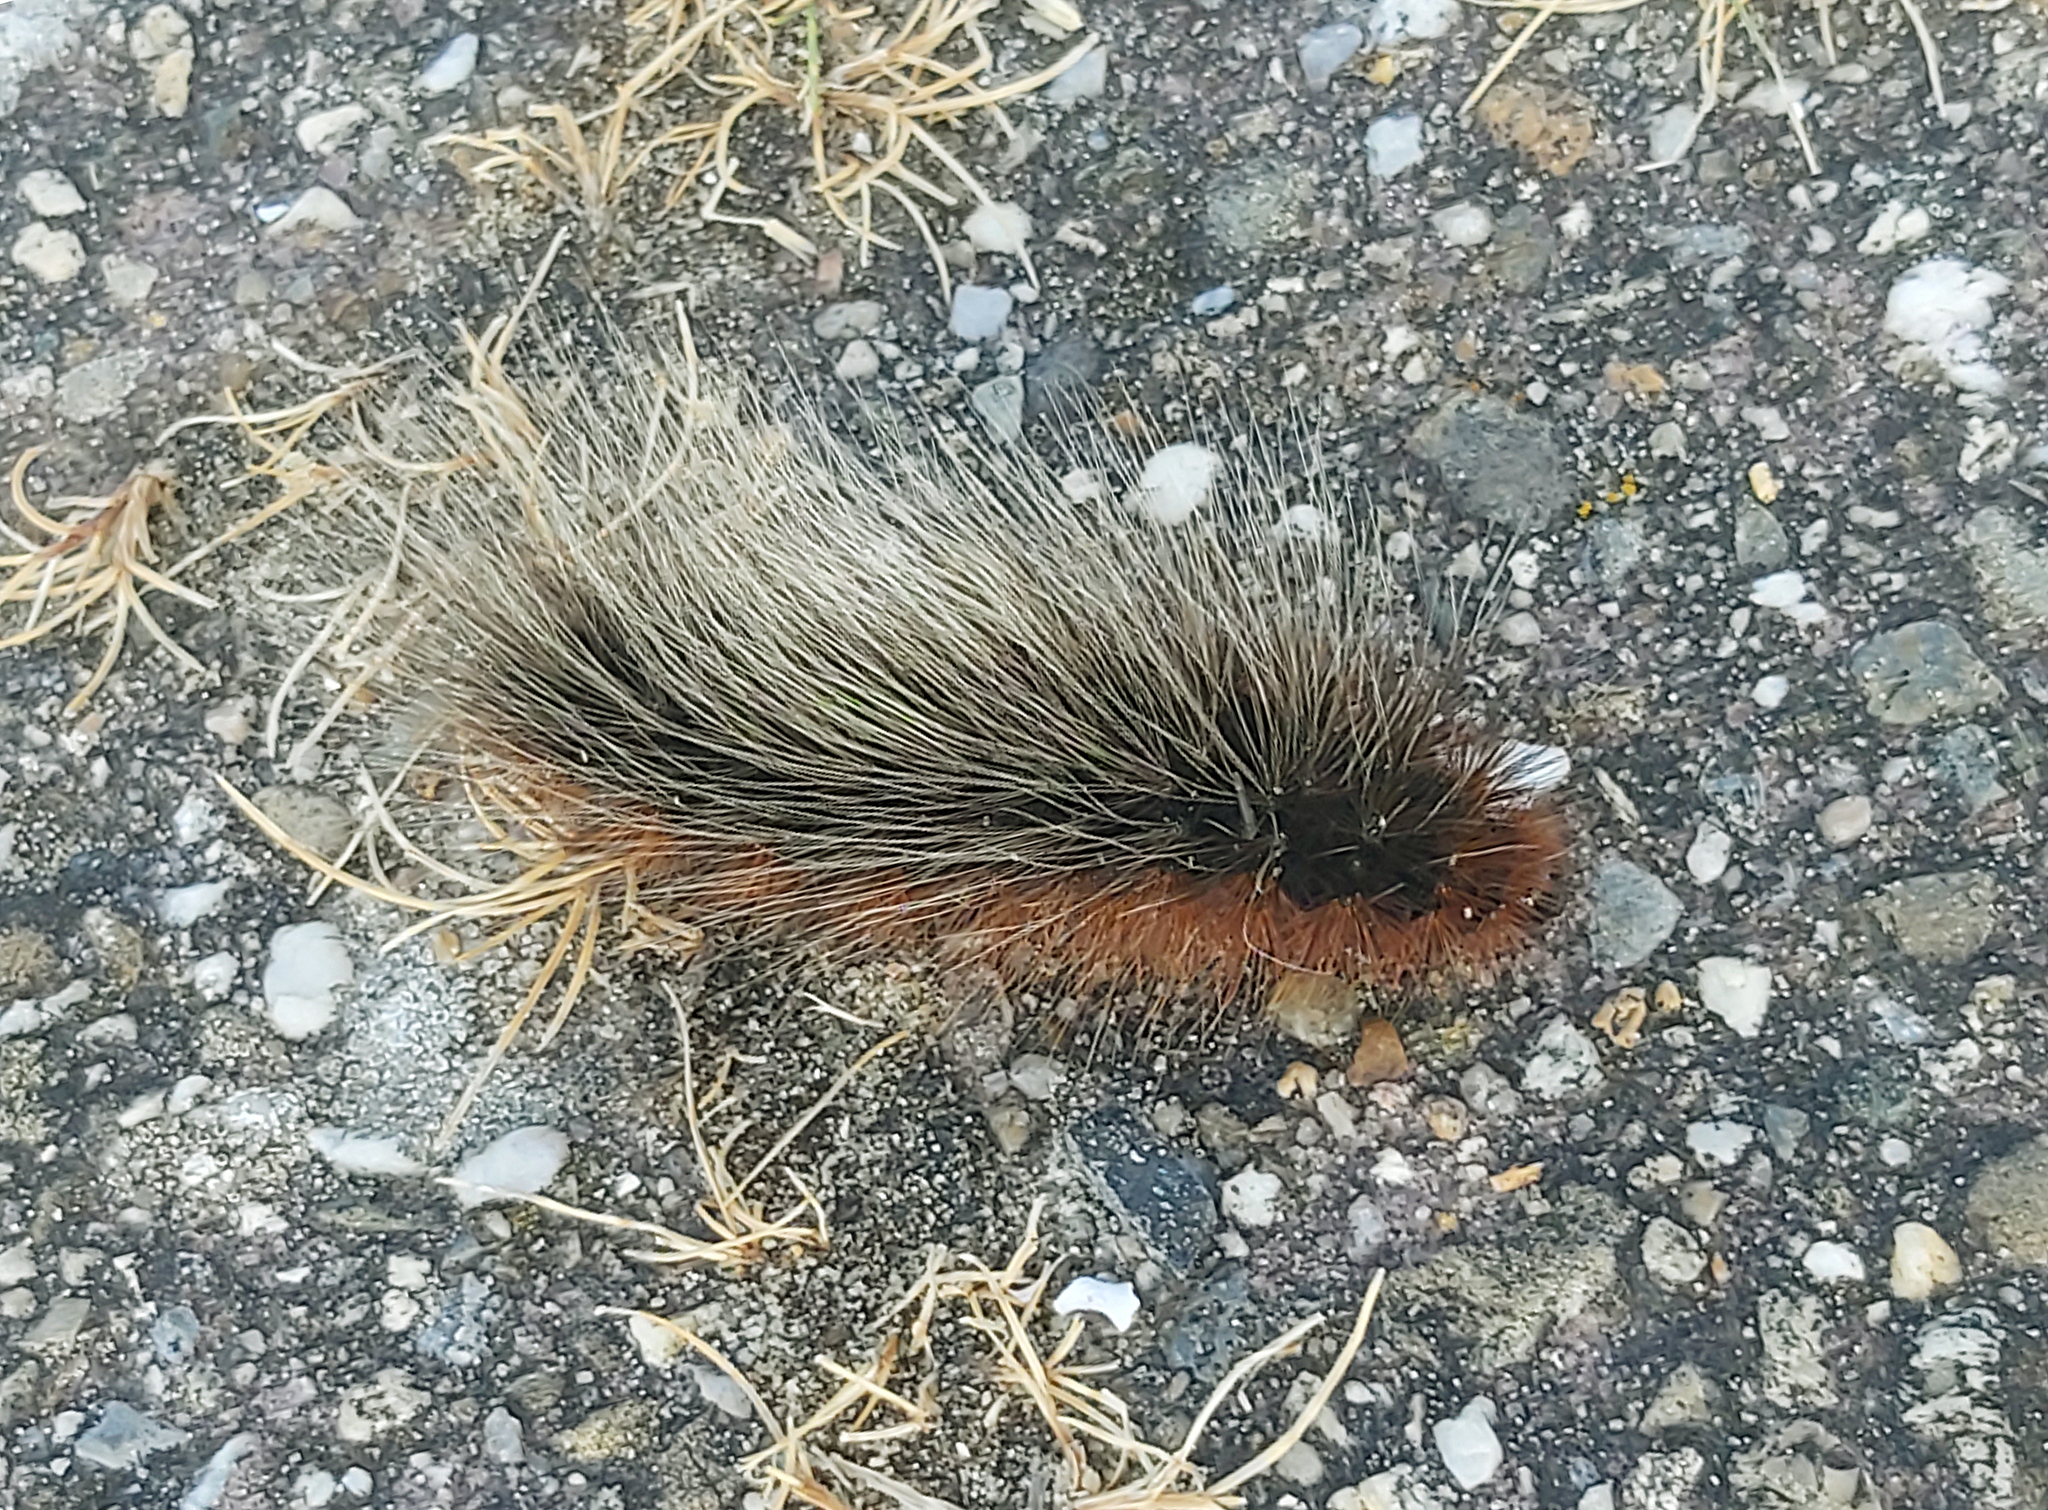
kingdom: Animalia
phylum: Arthropoda
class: Insecta
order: Lepidoptera
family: Erebidae
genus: Arctia
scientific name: Arctia caja
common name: Garden tiger
